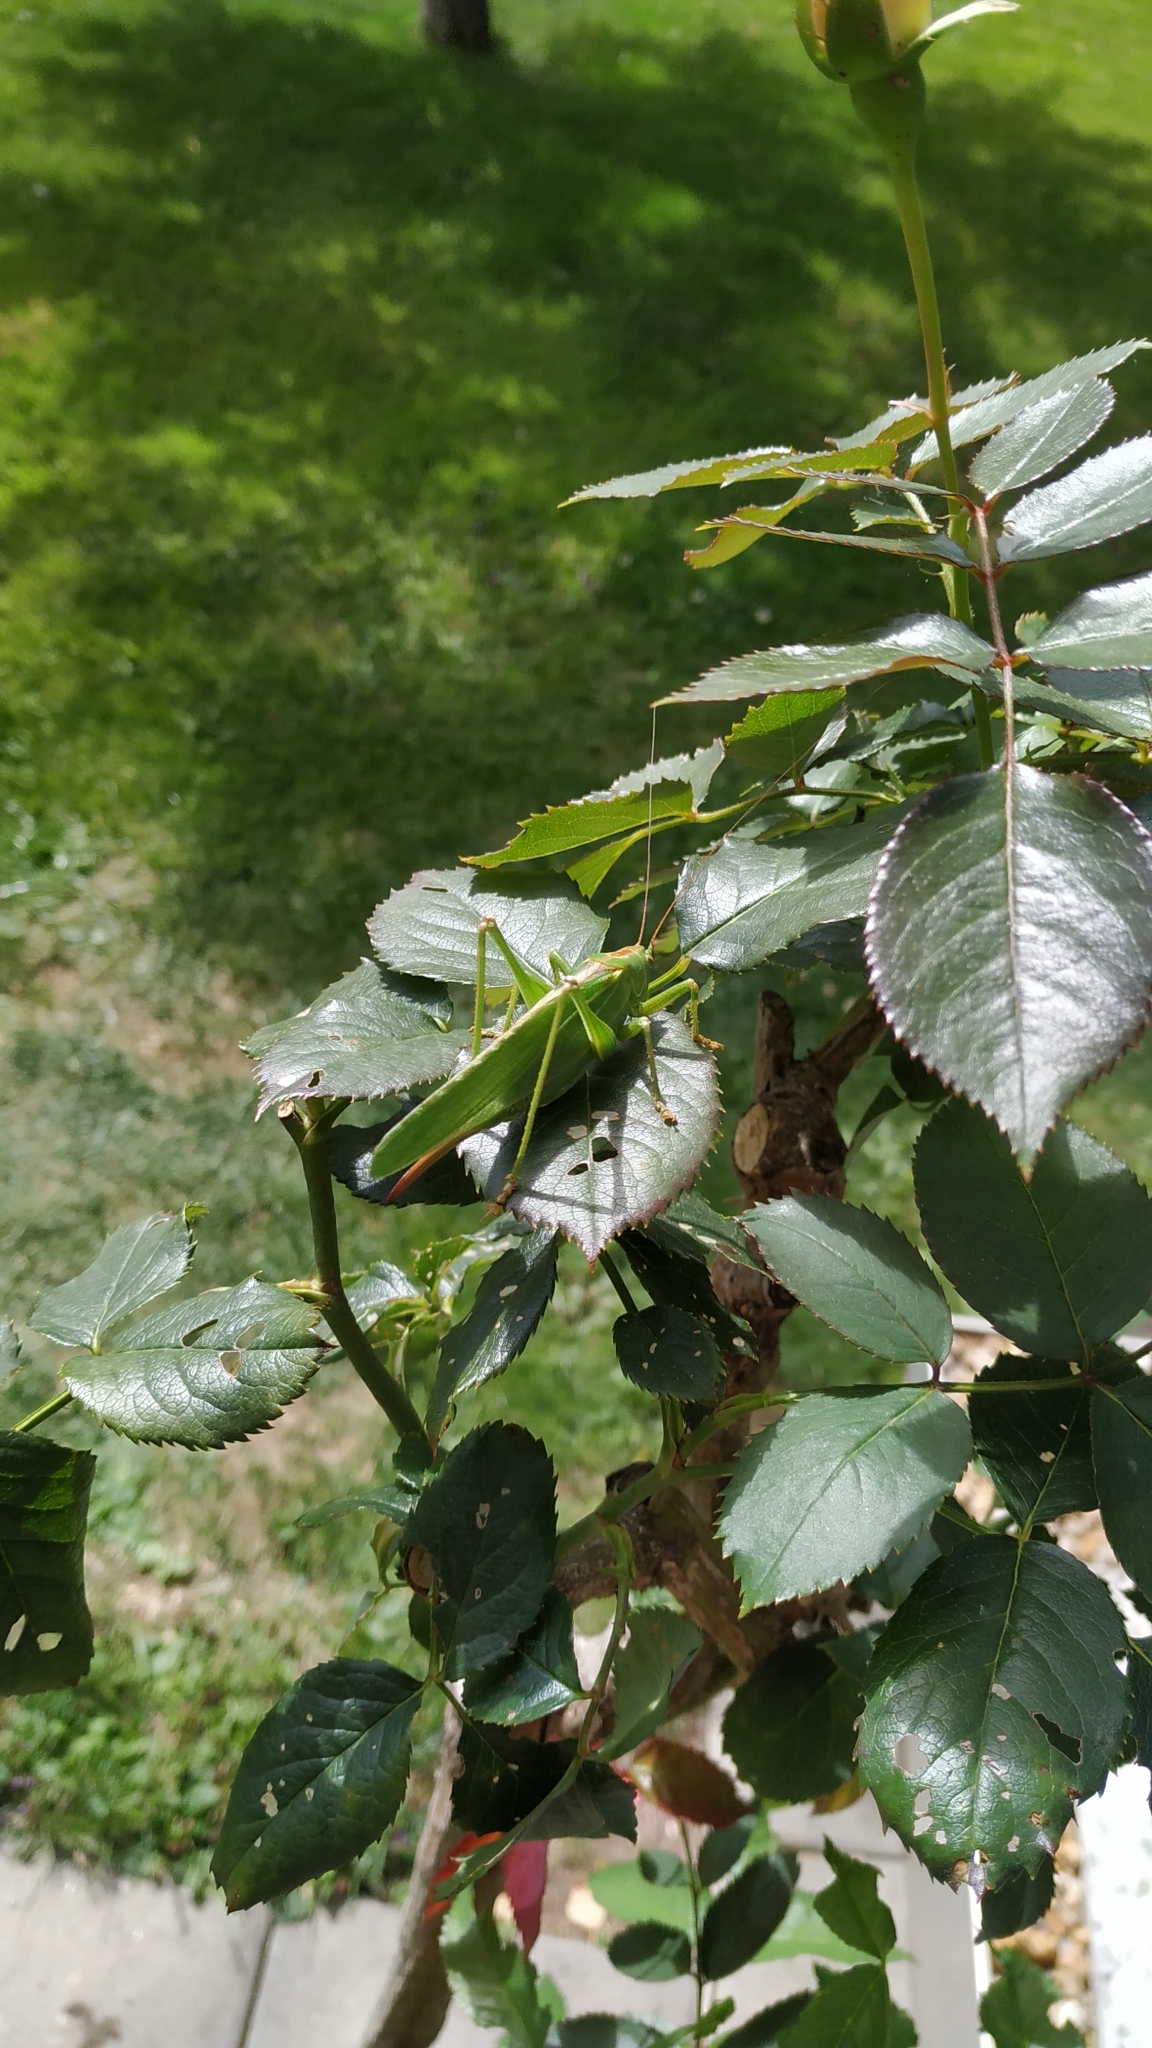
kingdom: Animalia
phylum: Arthropoda
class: Insecta
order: Orthoptera
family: Tettigoniidae
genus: Tettigonia
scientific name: Tettigonia viridissima
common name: Great green bush-cricket
